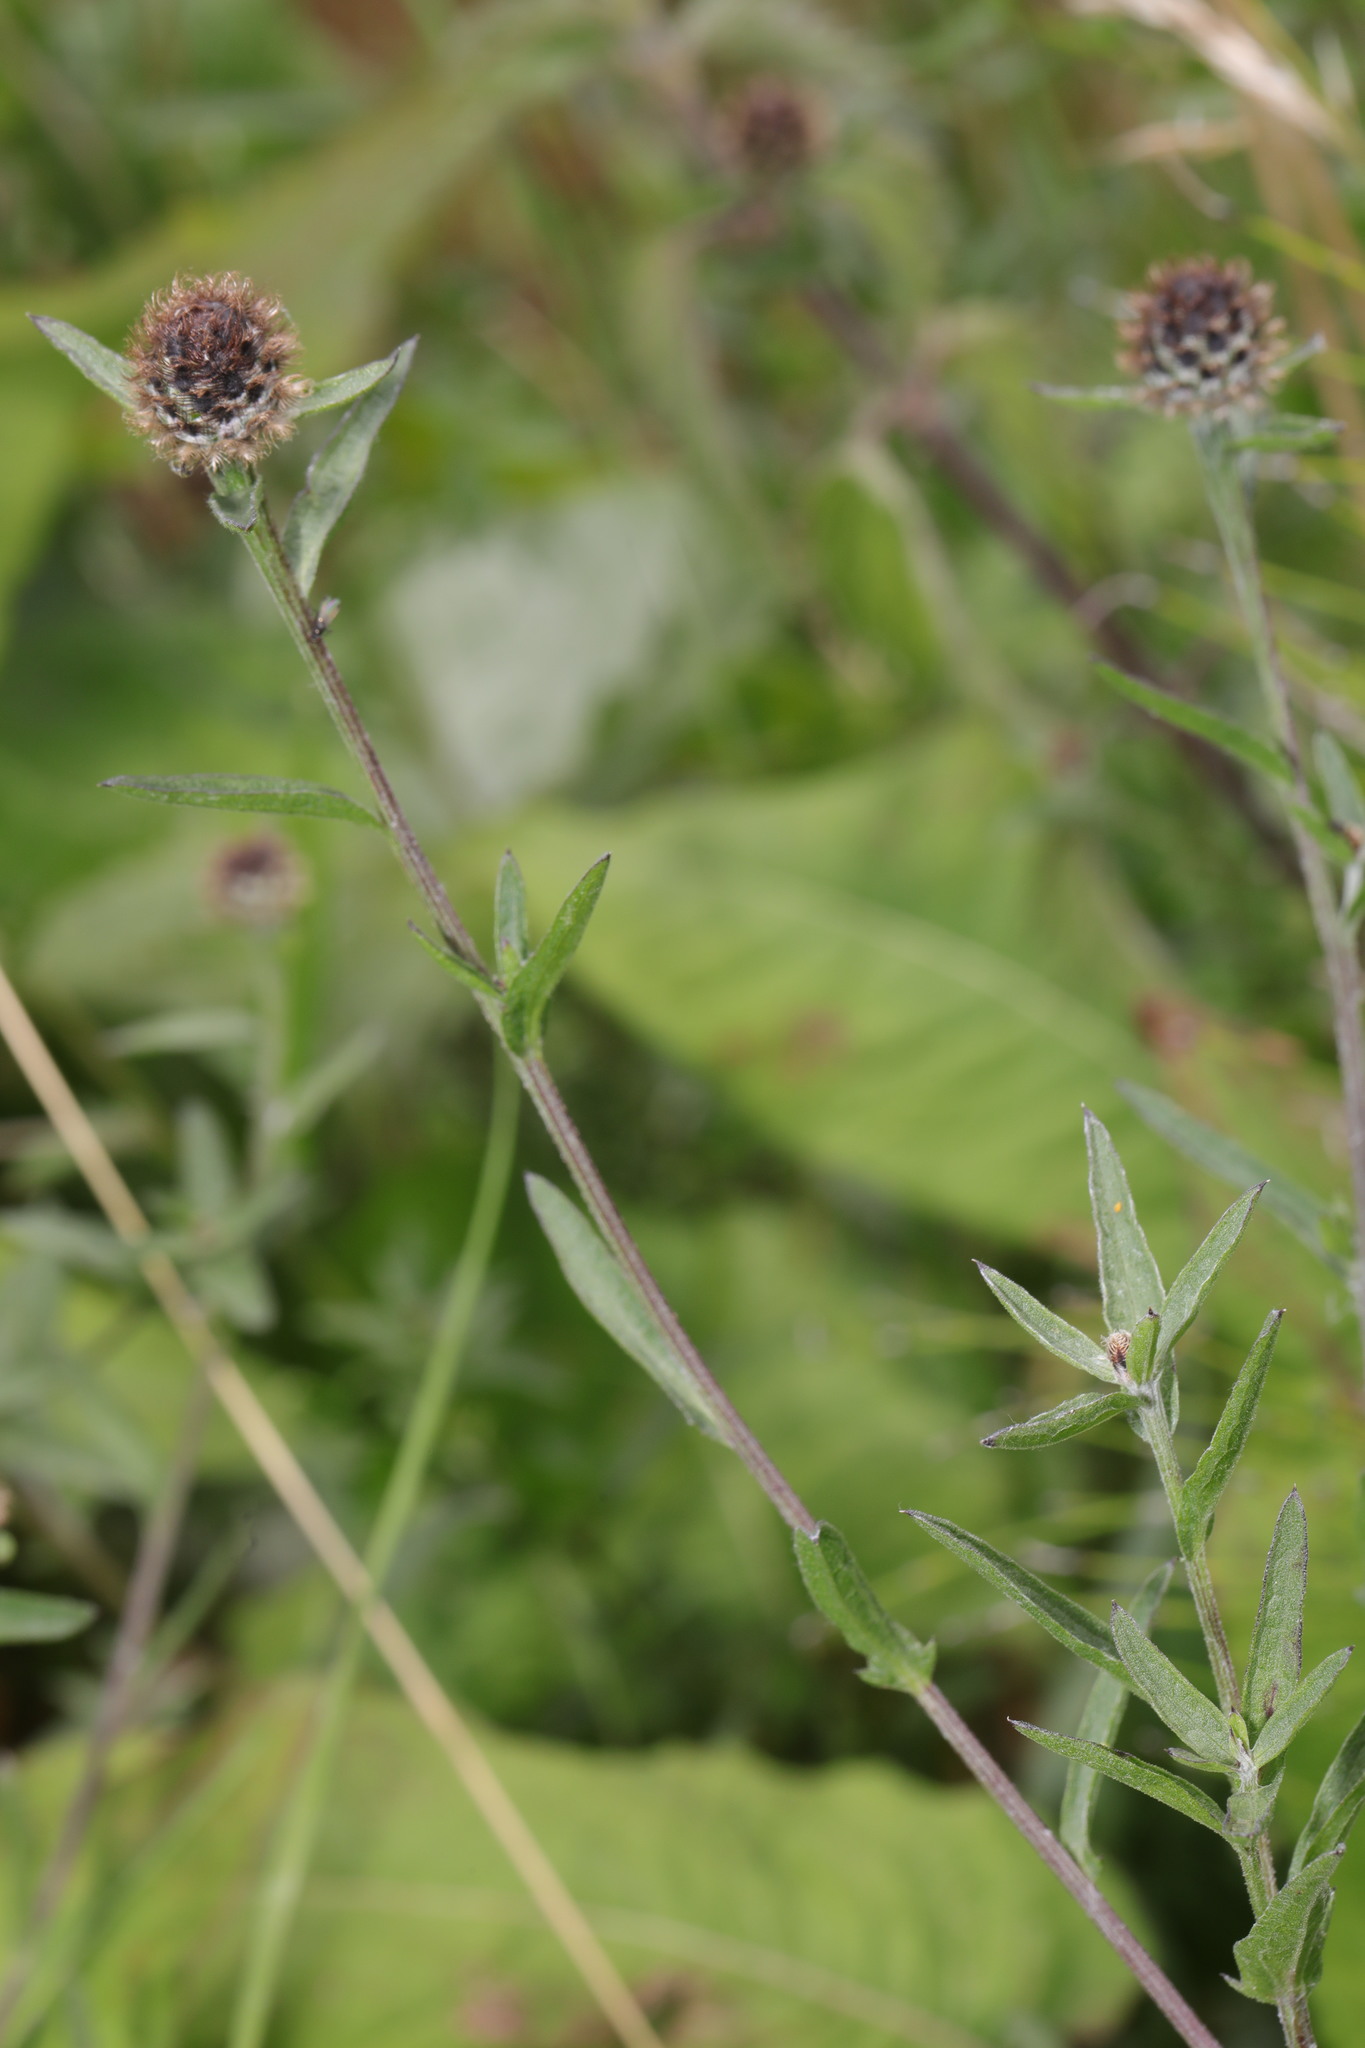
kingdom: Plantae
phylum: Tracheophyta
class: Magnoliopsida
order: Asterales
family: Asteraceae
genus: Centaurea
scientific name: Centaurea nigra
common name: Lesser knapweed
